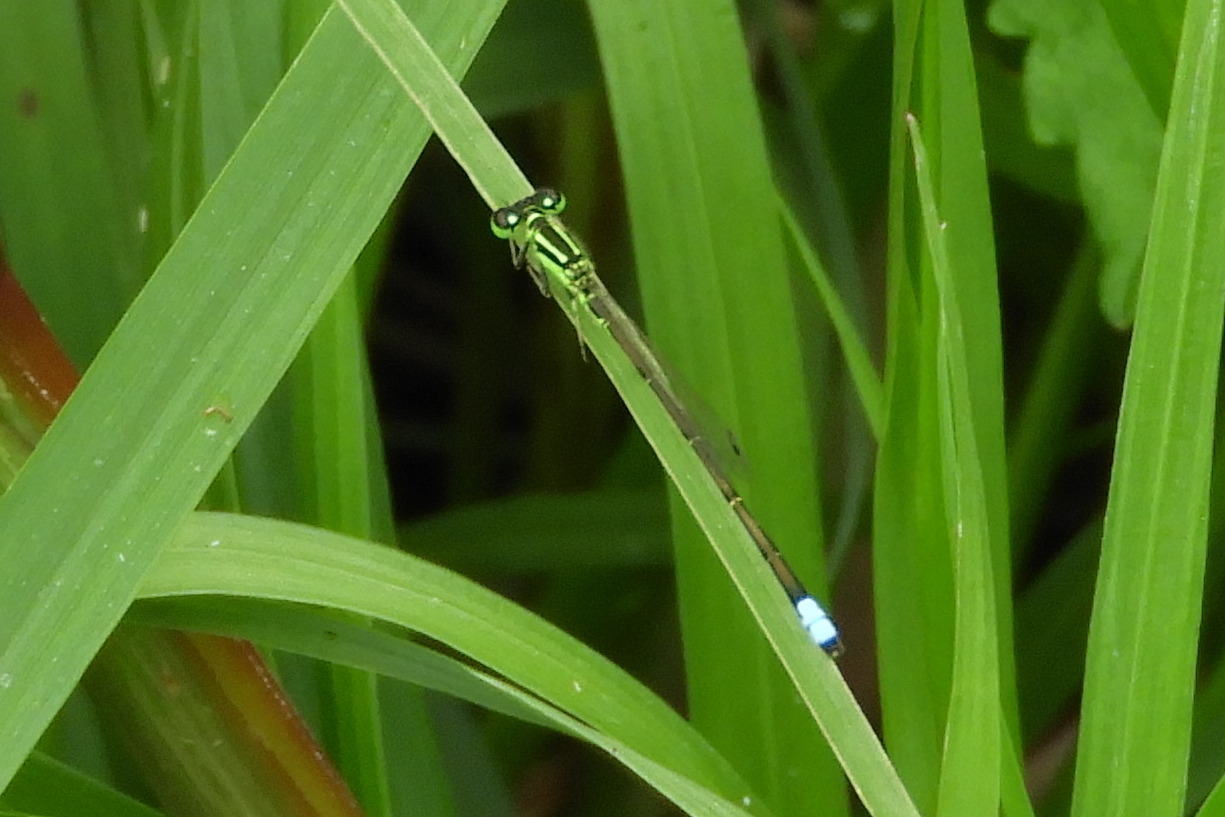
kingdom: Animalia
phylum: Arthropoda
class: Insecta
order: Odonata
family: Coenagrionidae
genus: Ischnura
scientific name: Ischnura verticalis
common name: Eastern forktail
